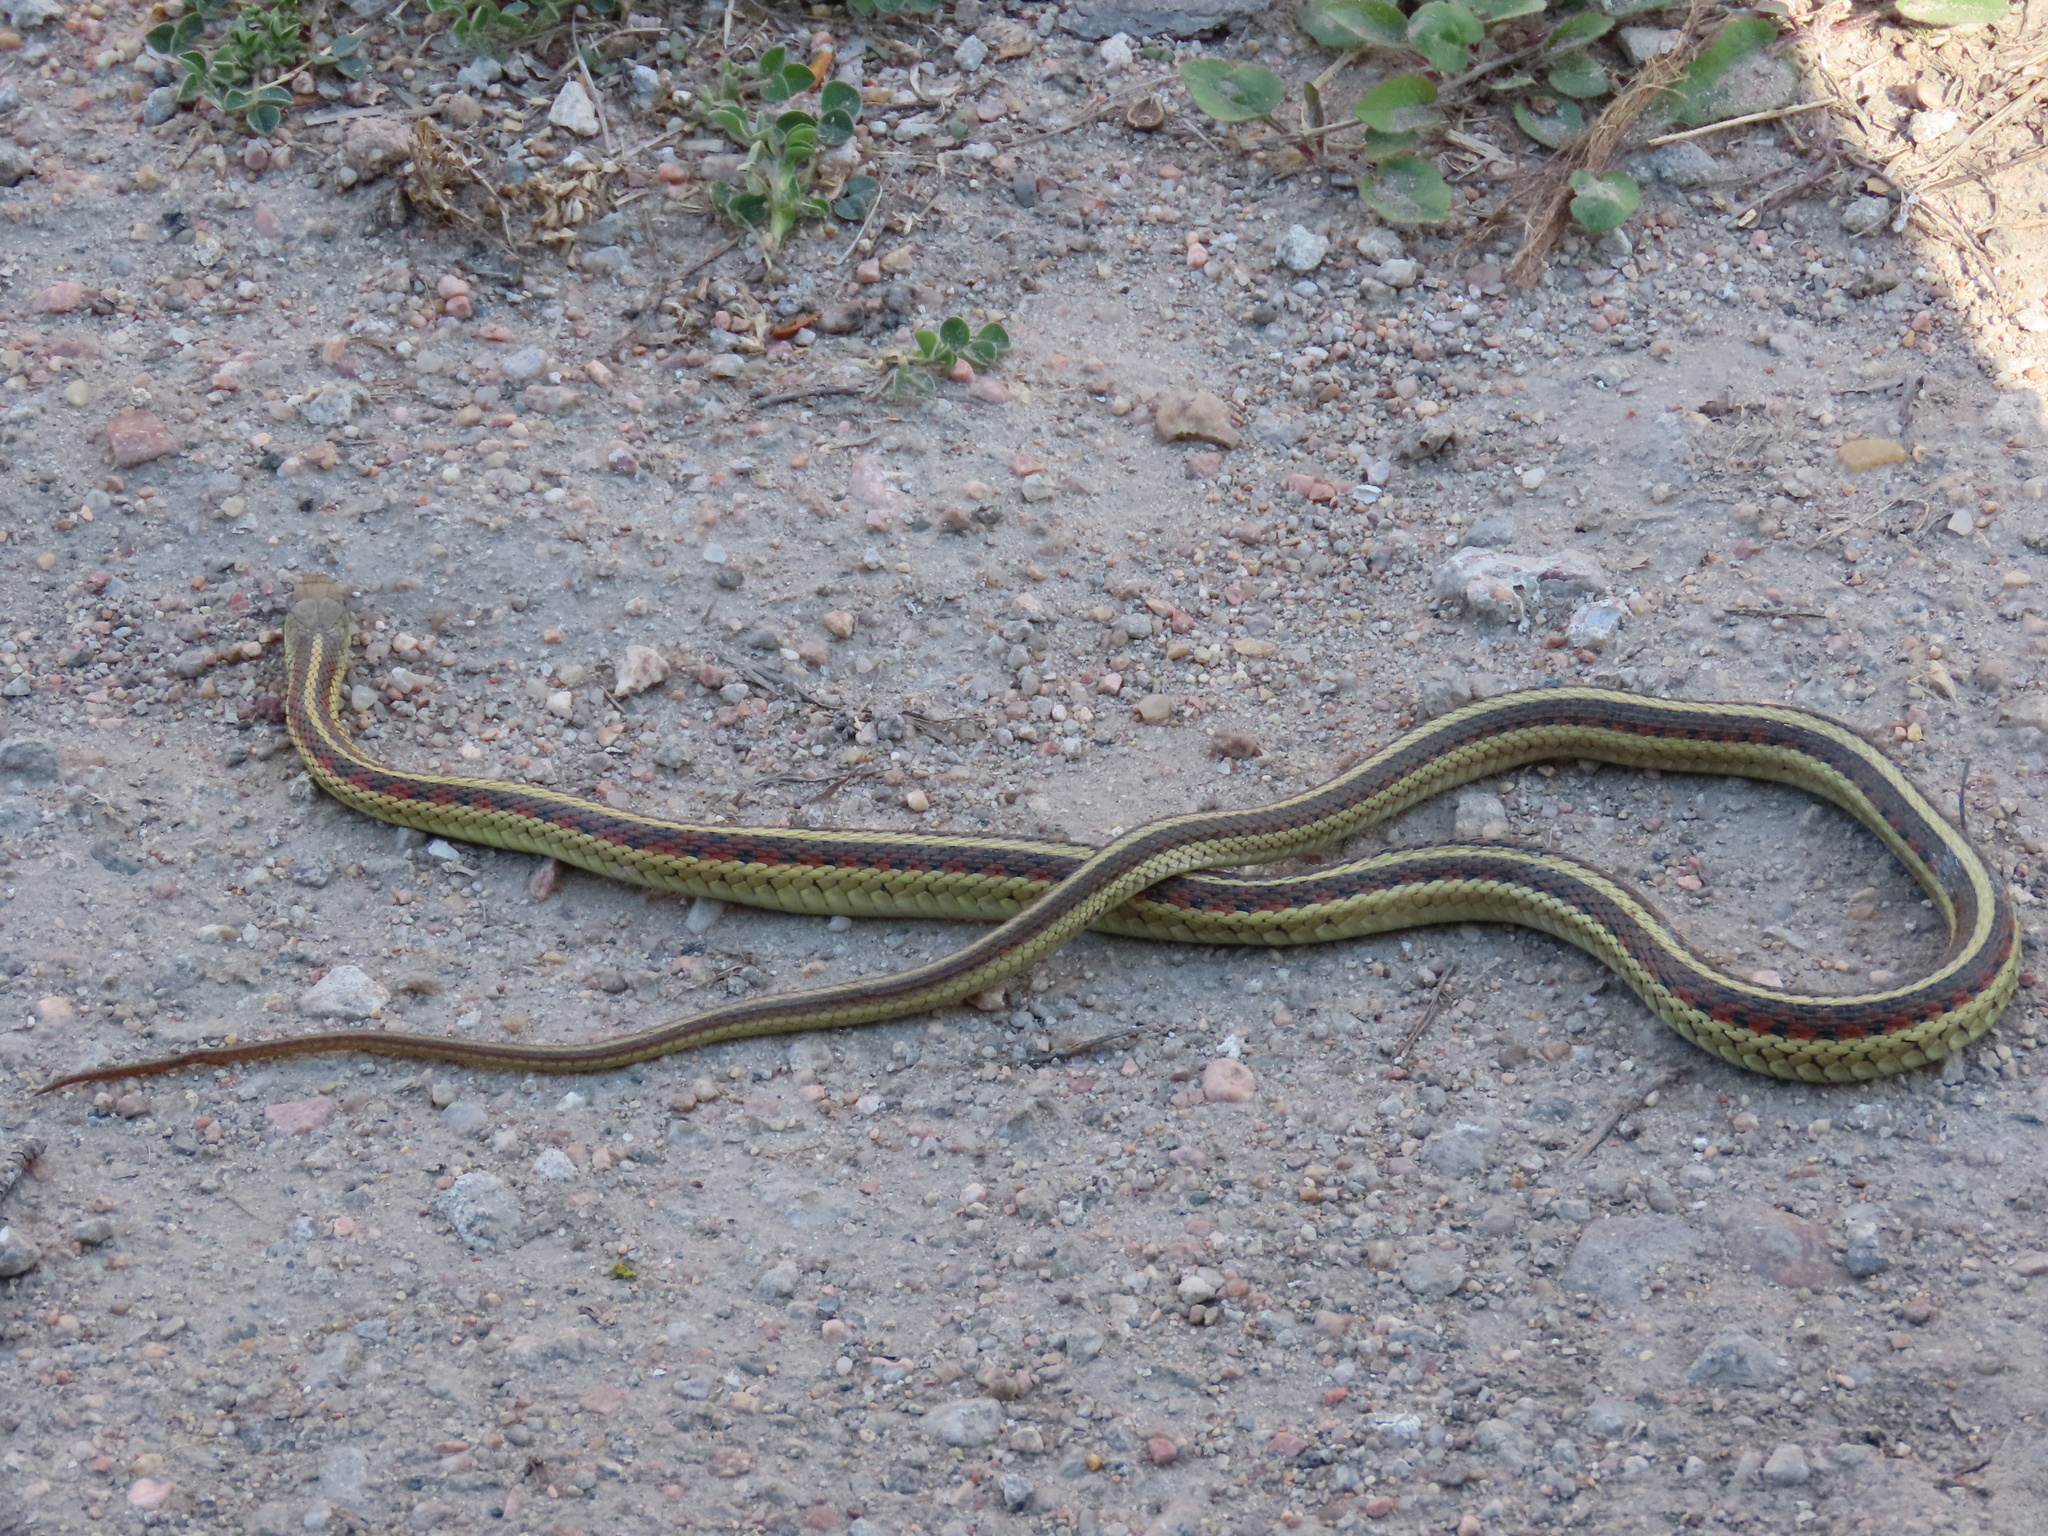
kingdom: Animalia
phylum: Chordata
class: Squamata
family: Colubridae
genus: Thamnophis
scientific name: Thamnophis sirtalis
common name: Common garter snake
